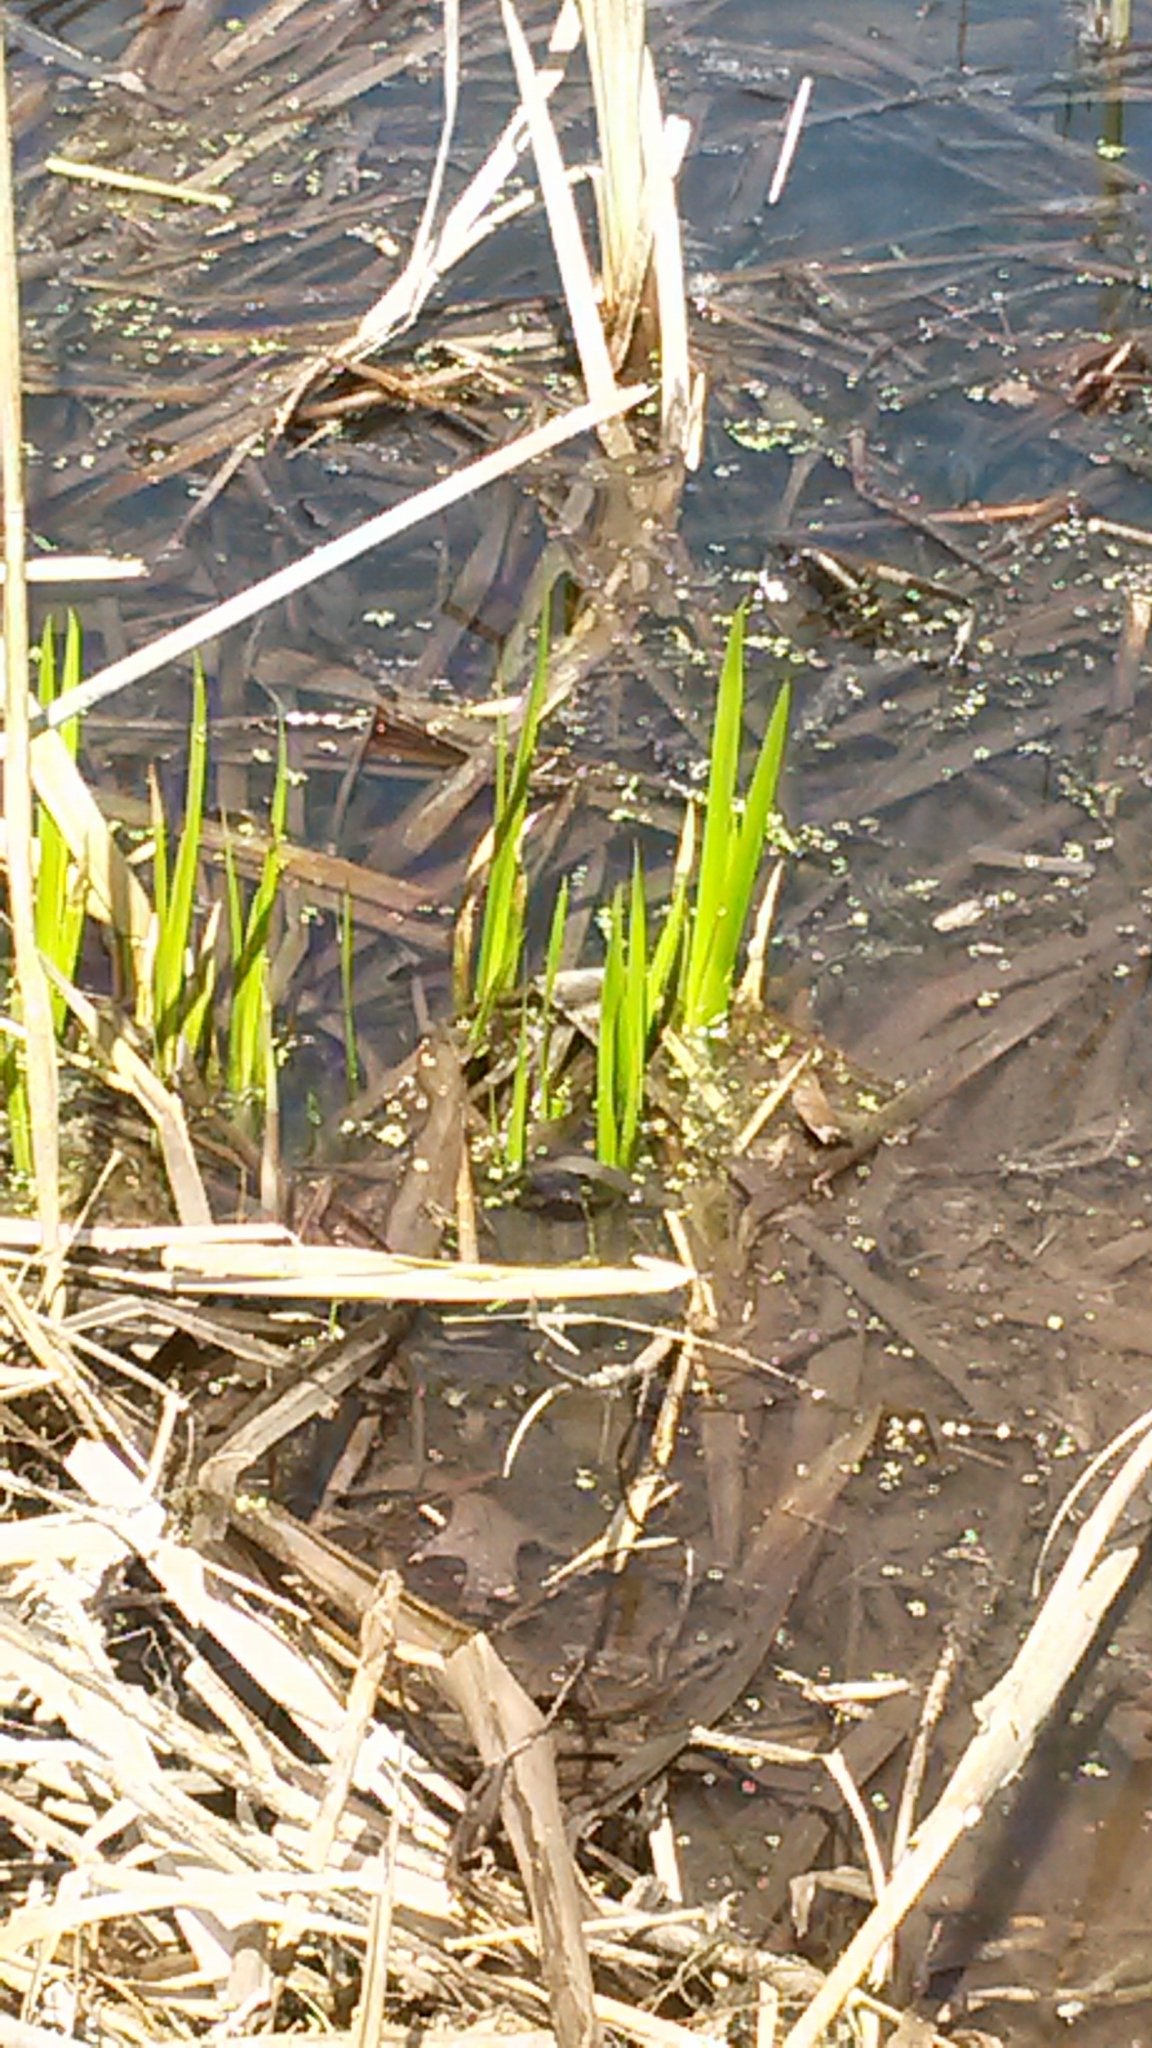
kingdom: Plantae
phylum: Tracheophyta
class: Liliopsida
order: Asparagales
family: Iridaceae
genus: Iris
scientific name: Iris
